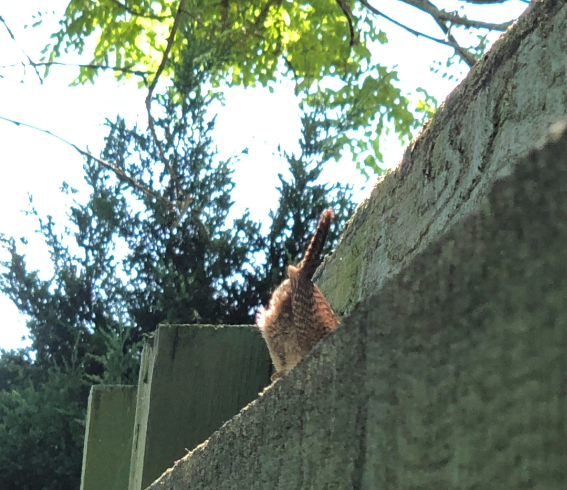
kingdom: Animalia
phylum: Chordata
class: Aves
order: Passeriformes
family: Troglodytidae
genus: Troglodytes
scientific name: Troglodytes aedon
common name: House wren
